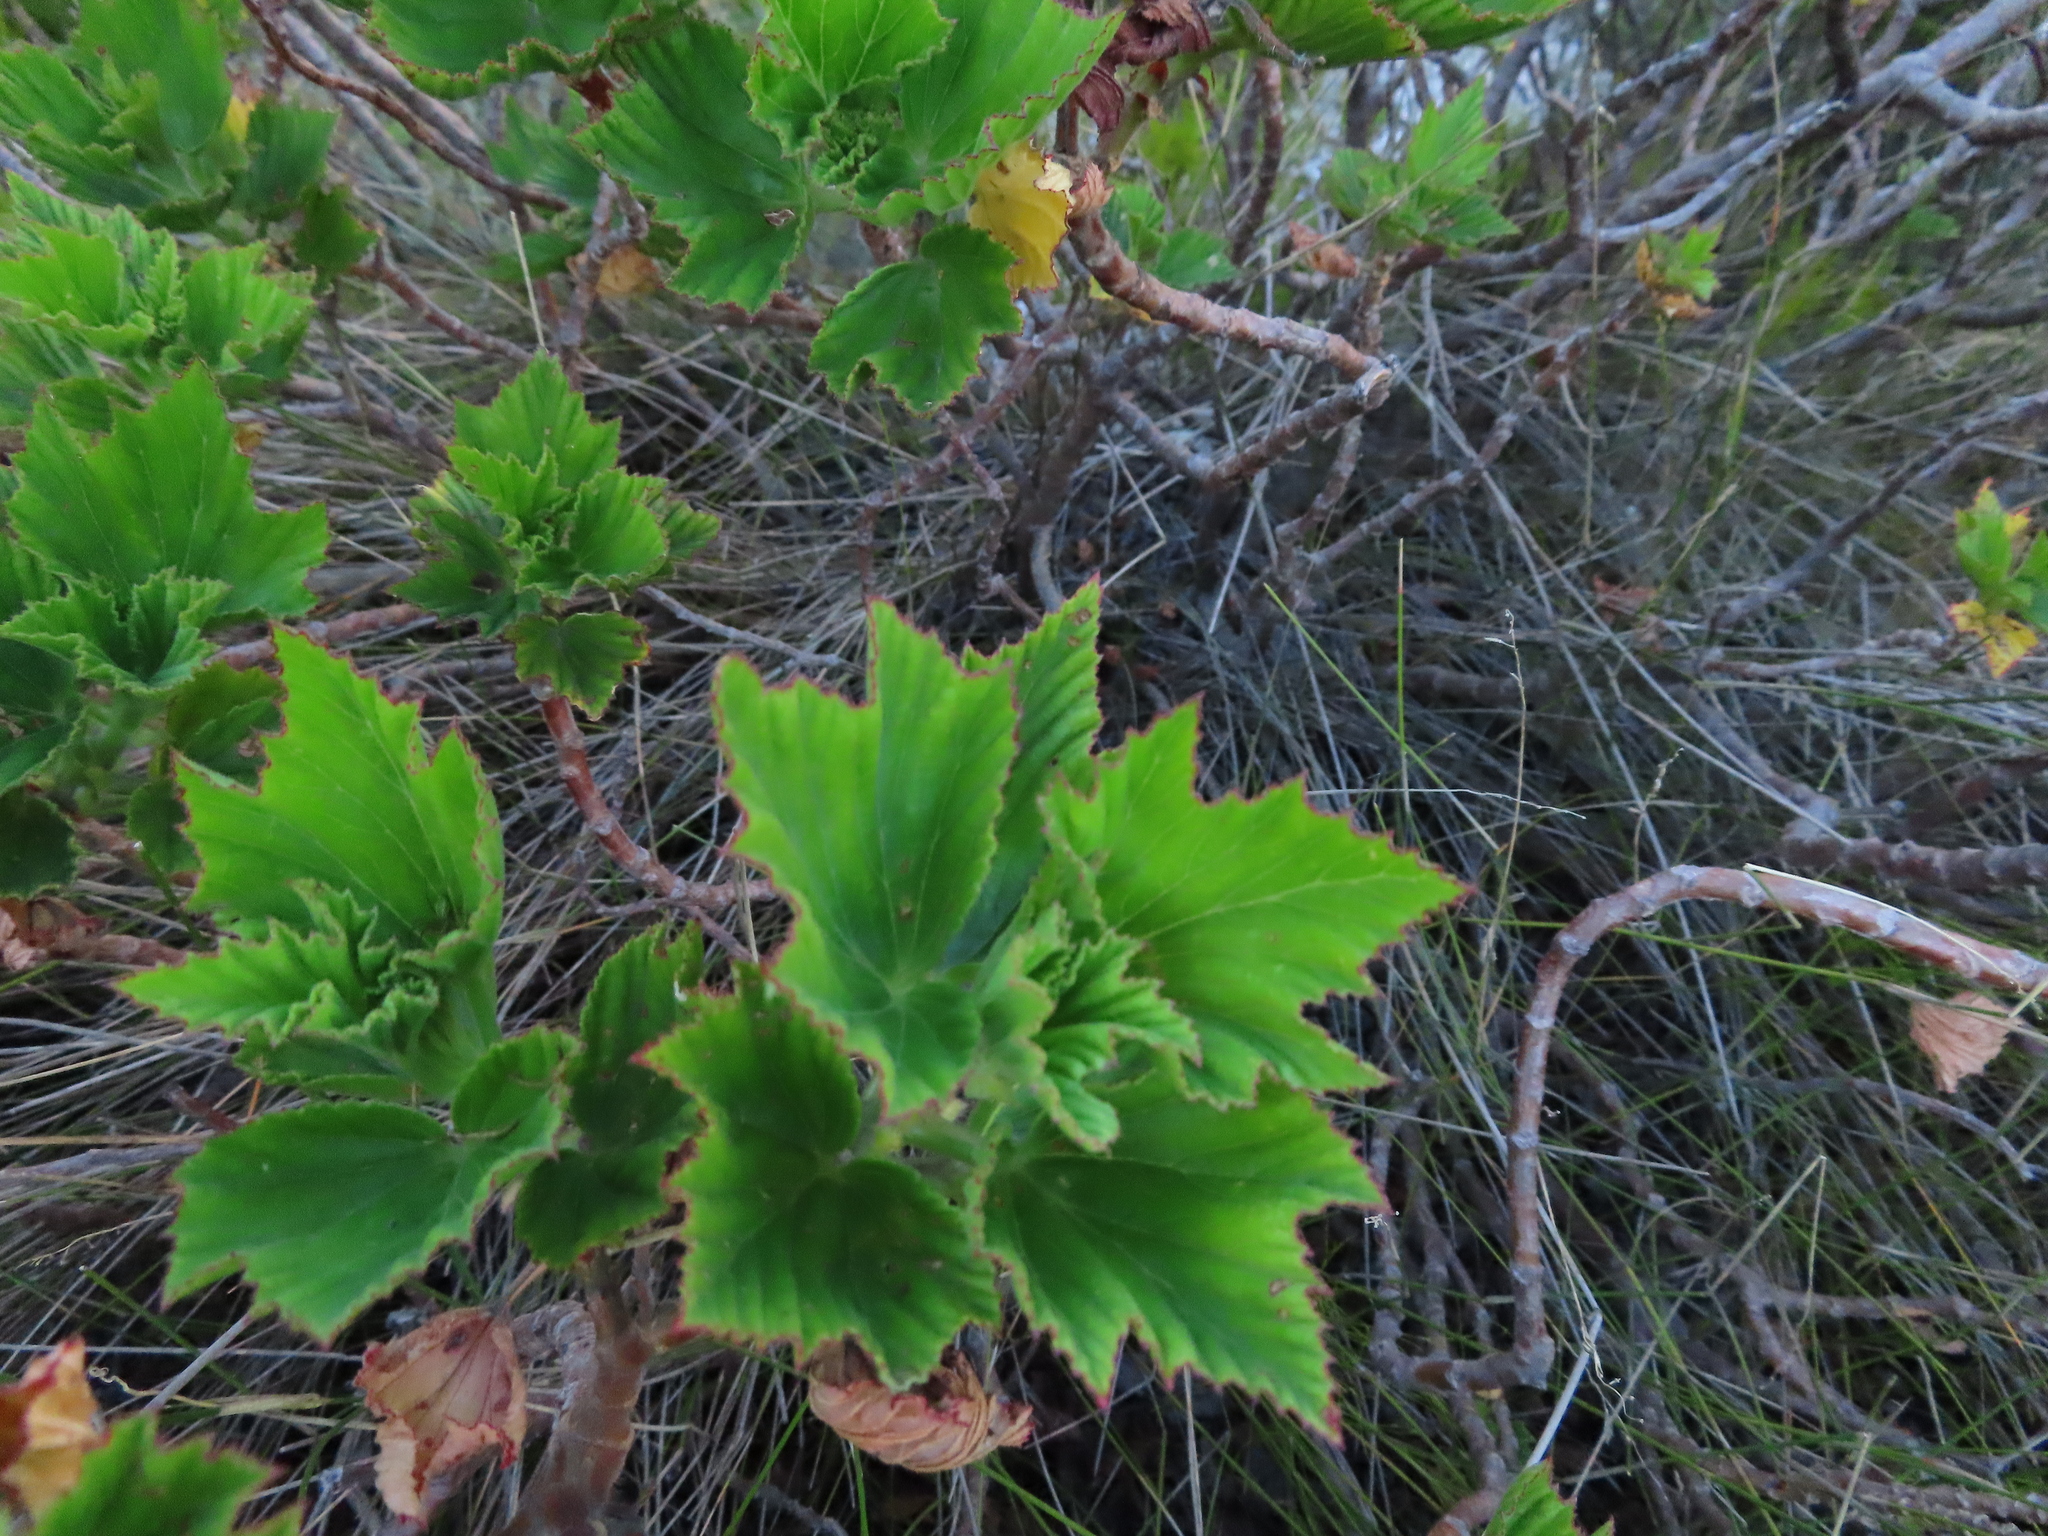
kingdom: Plantae
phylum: Tracheophyta
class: Magnoliopsida
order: Geraniales
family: Geraniaceae
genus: Pelargonium
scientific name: Pelargonium cucullatum
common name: Tree pelargonium
